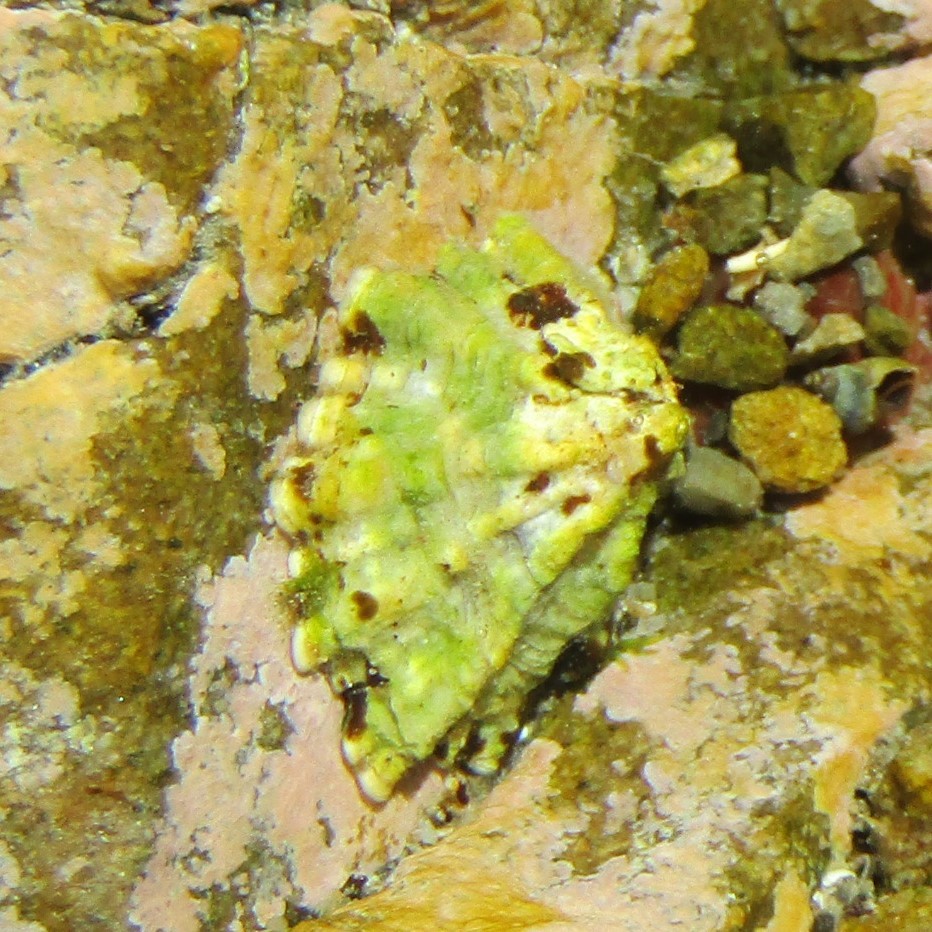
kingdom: Animalia
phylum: Mollusca
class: Gastropoda
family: Lottiidae
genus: Patelloida
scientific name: Patelloida corticata
